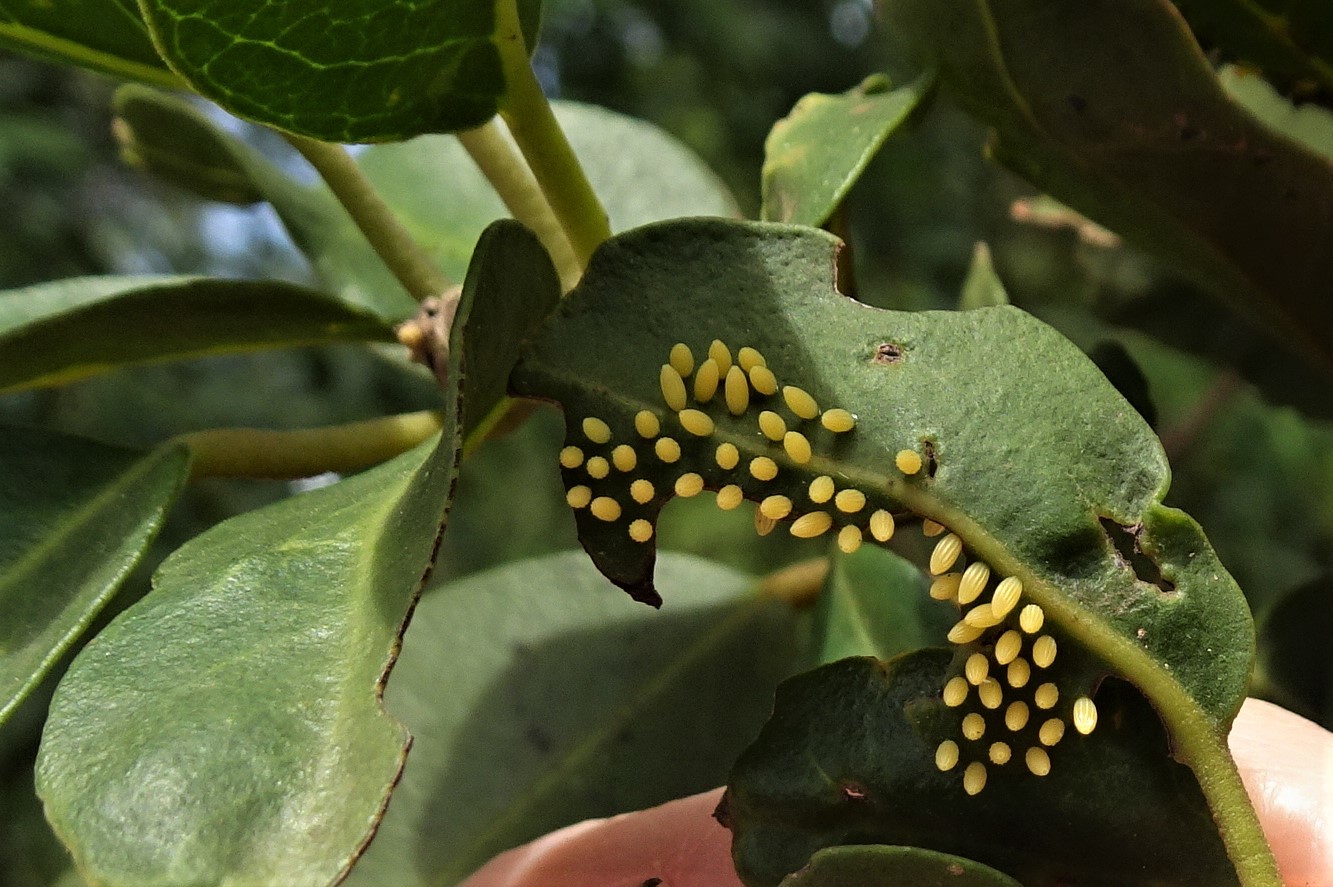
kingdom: Animalia
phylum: Arthropoda
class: Insecta
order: Lepidoptera
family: Pieridae
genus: Belenois
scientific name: Belenois java
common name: Caper white
